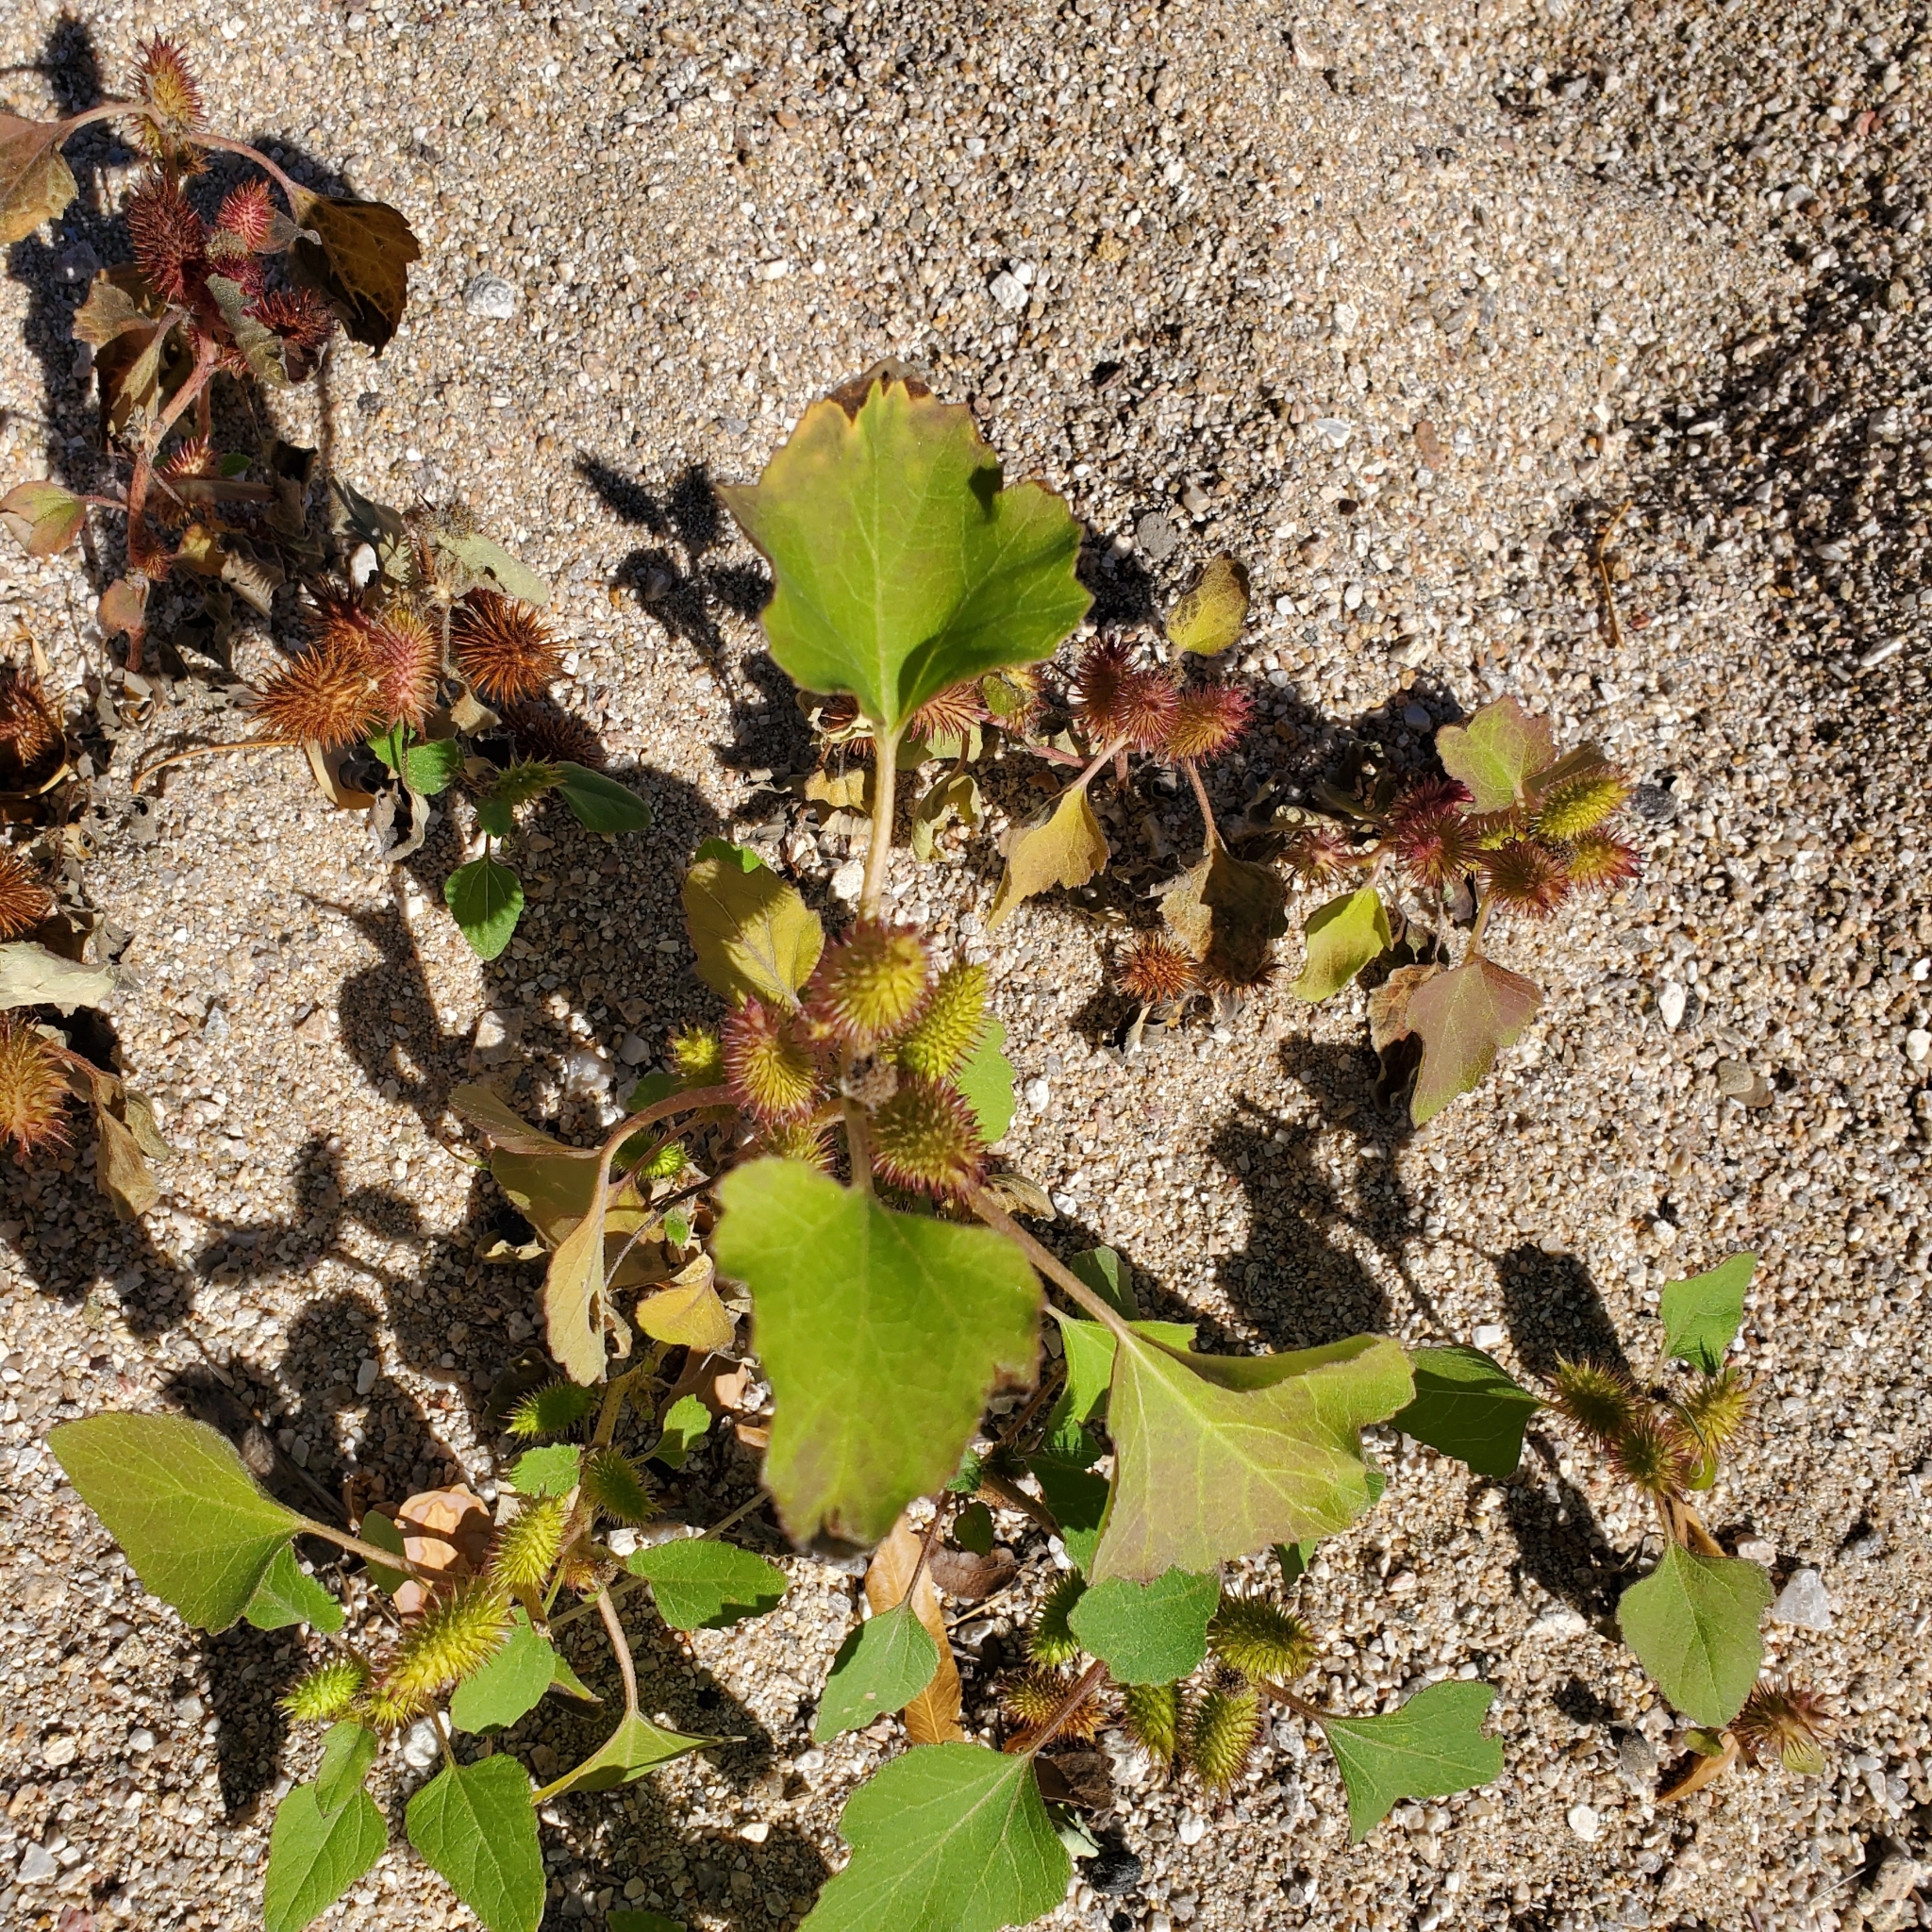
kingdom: Plantae
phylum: Tracheophyta
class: Magnoliopsida
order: Asterales
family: Asteraceae
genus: Xanthium
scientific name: Xanthium strumarium
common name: Rough cocklebur
